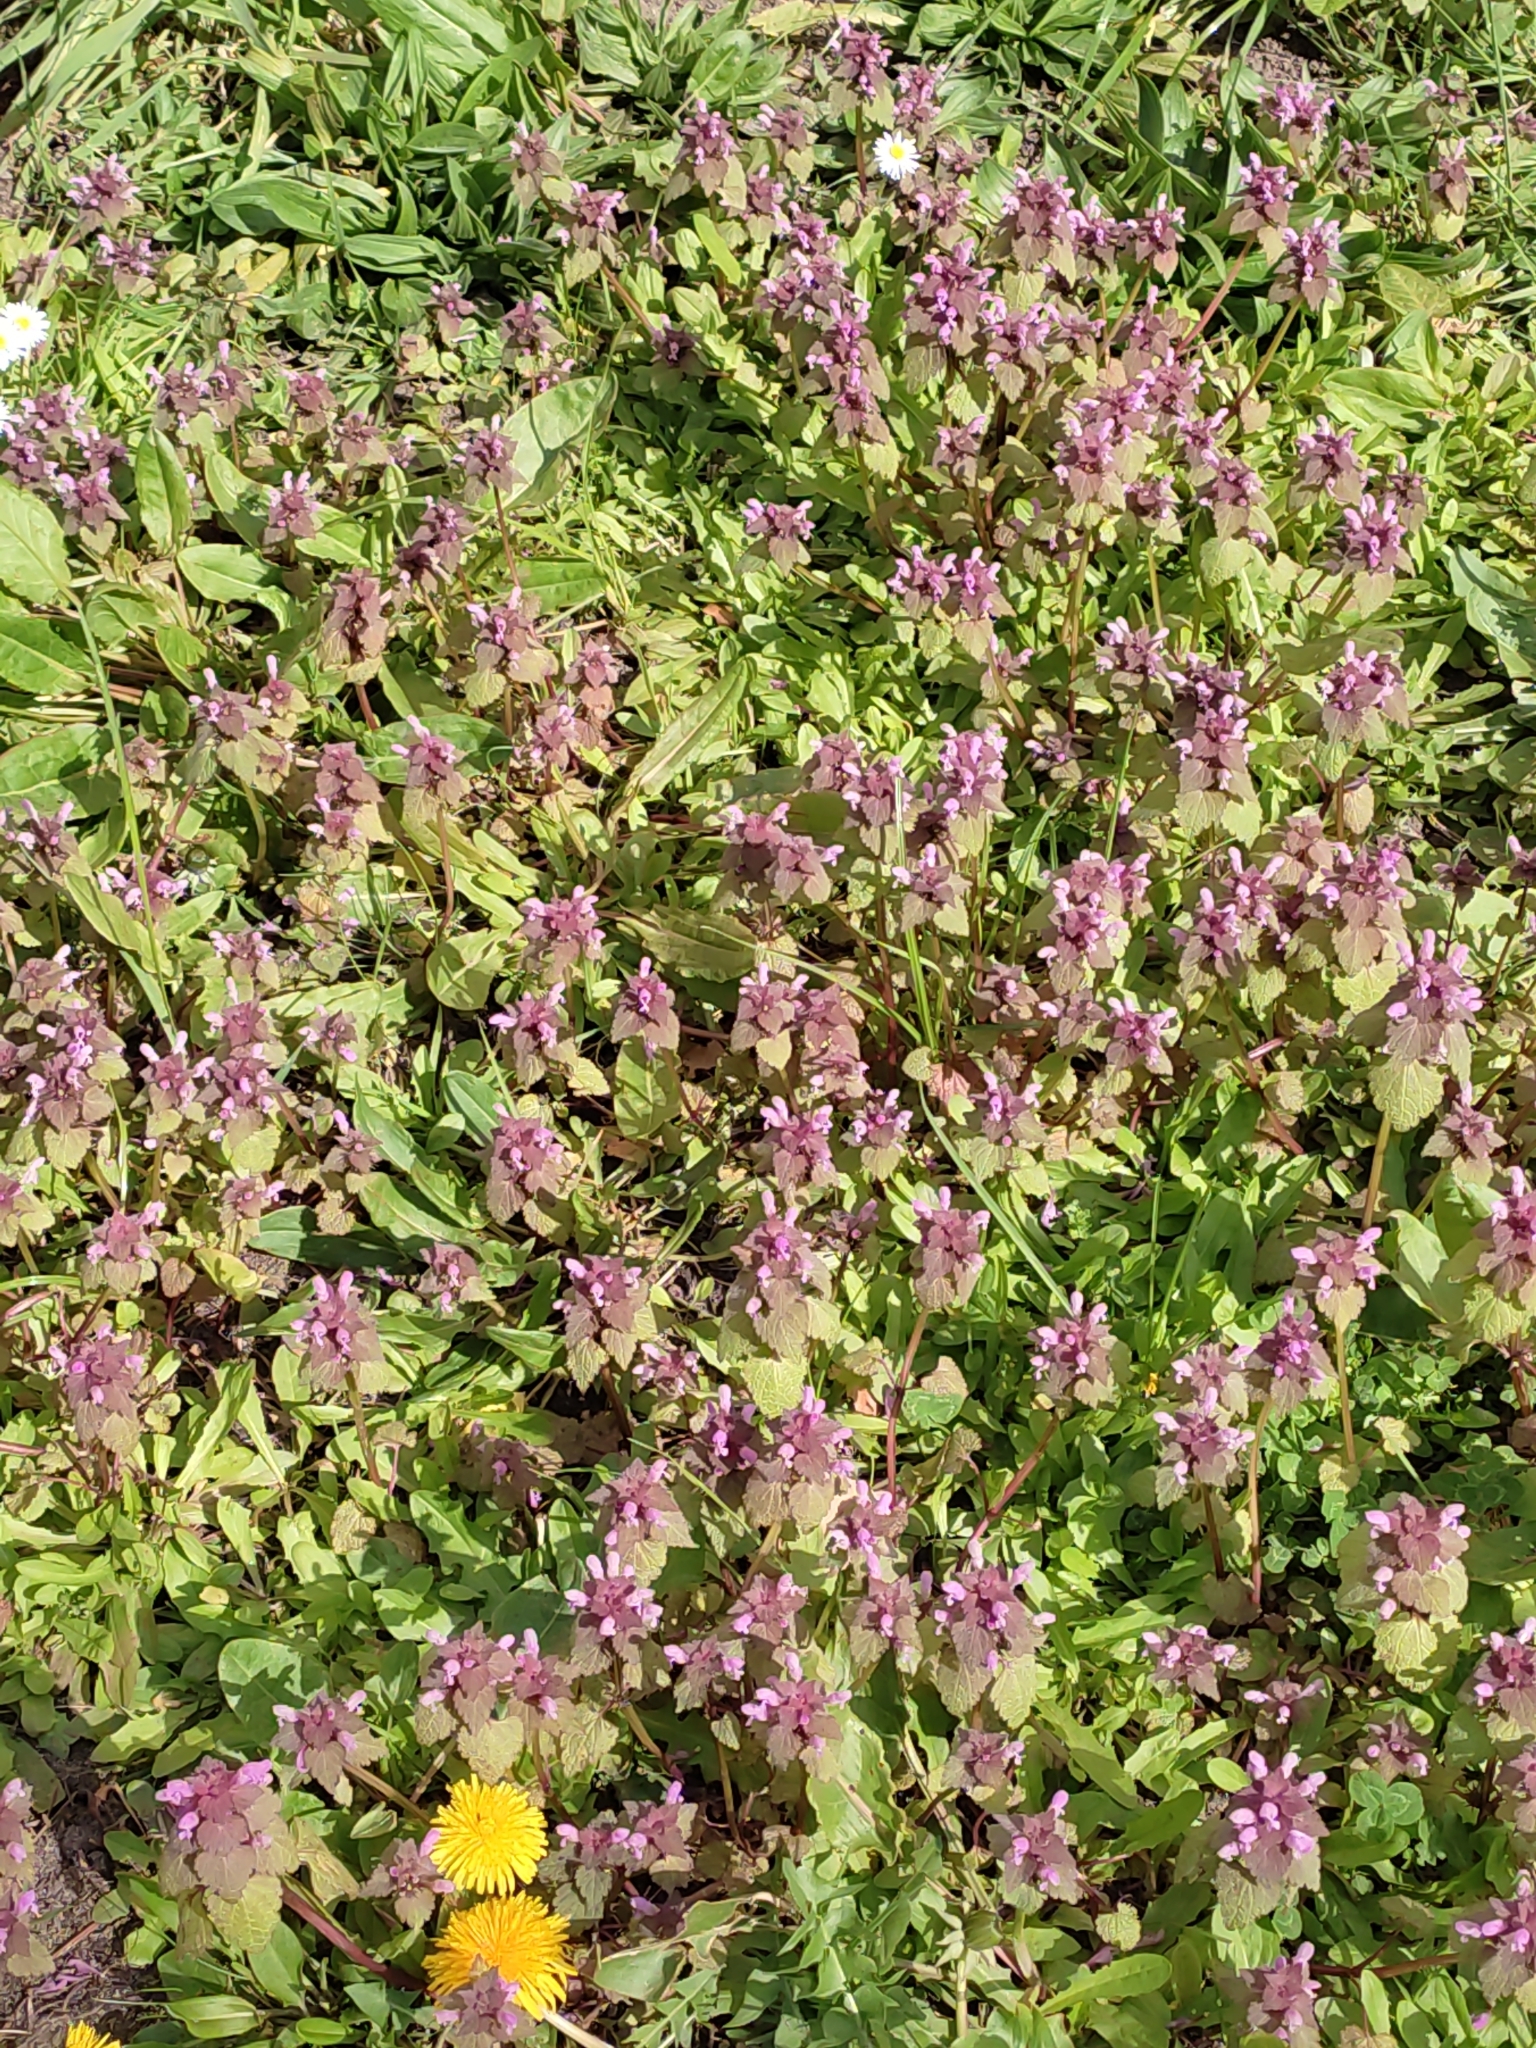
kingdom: Plantae
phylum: Tracheophyta
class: Magnoliopsida
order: Lamiales
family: Lamiaceae
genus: Lamium
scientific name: Lamium purpureum
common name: Red dead-nettle
